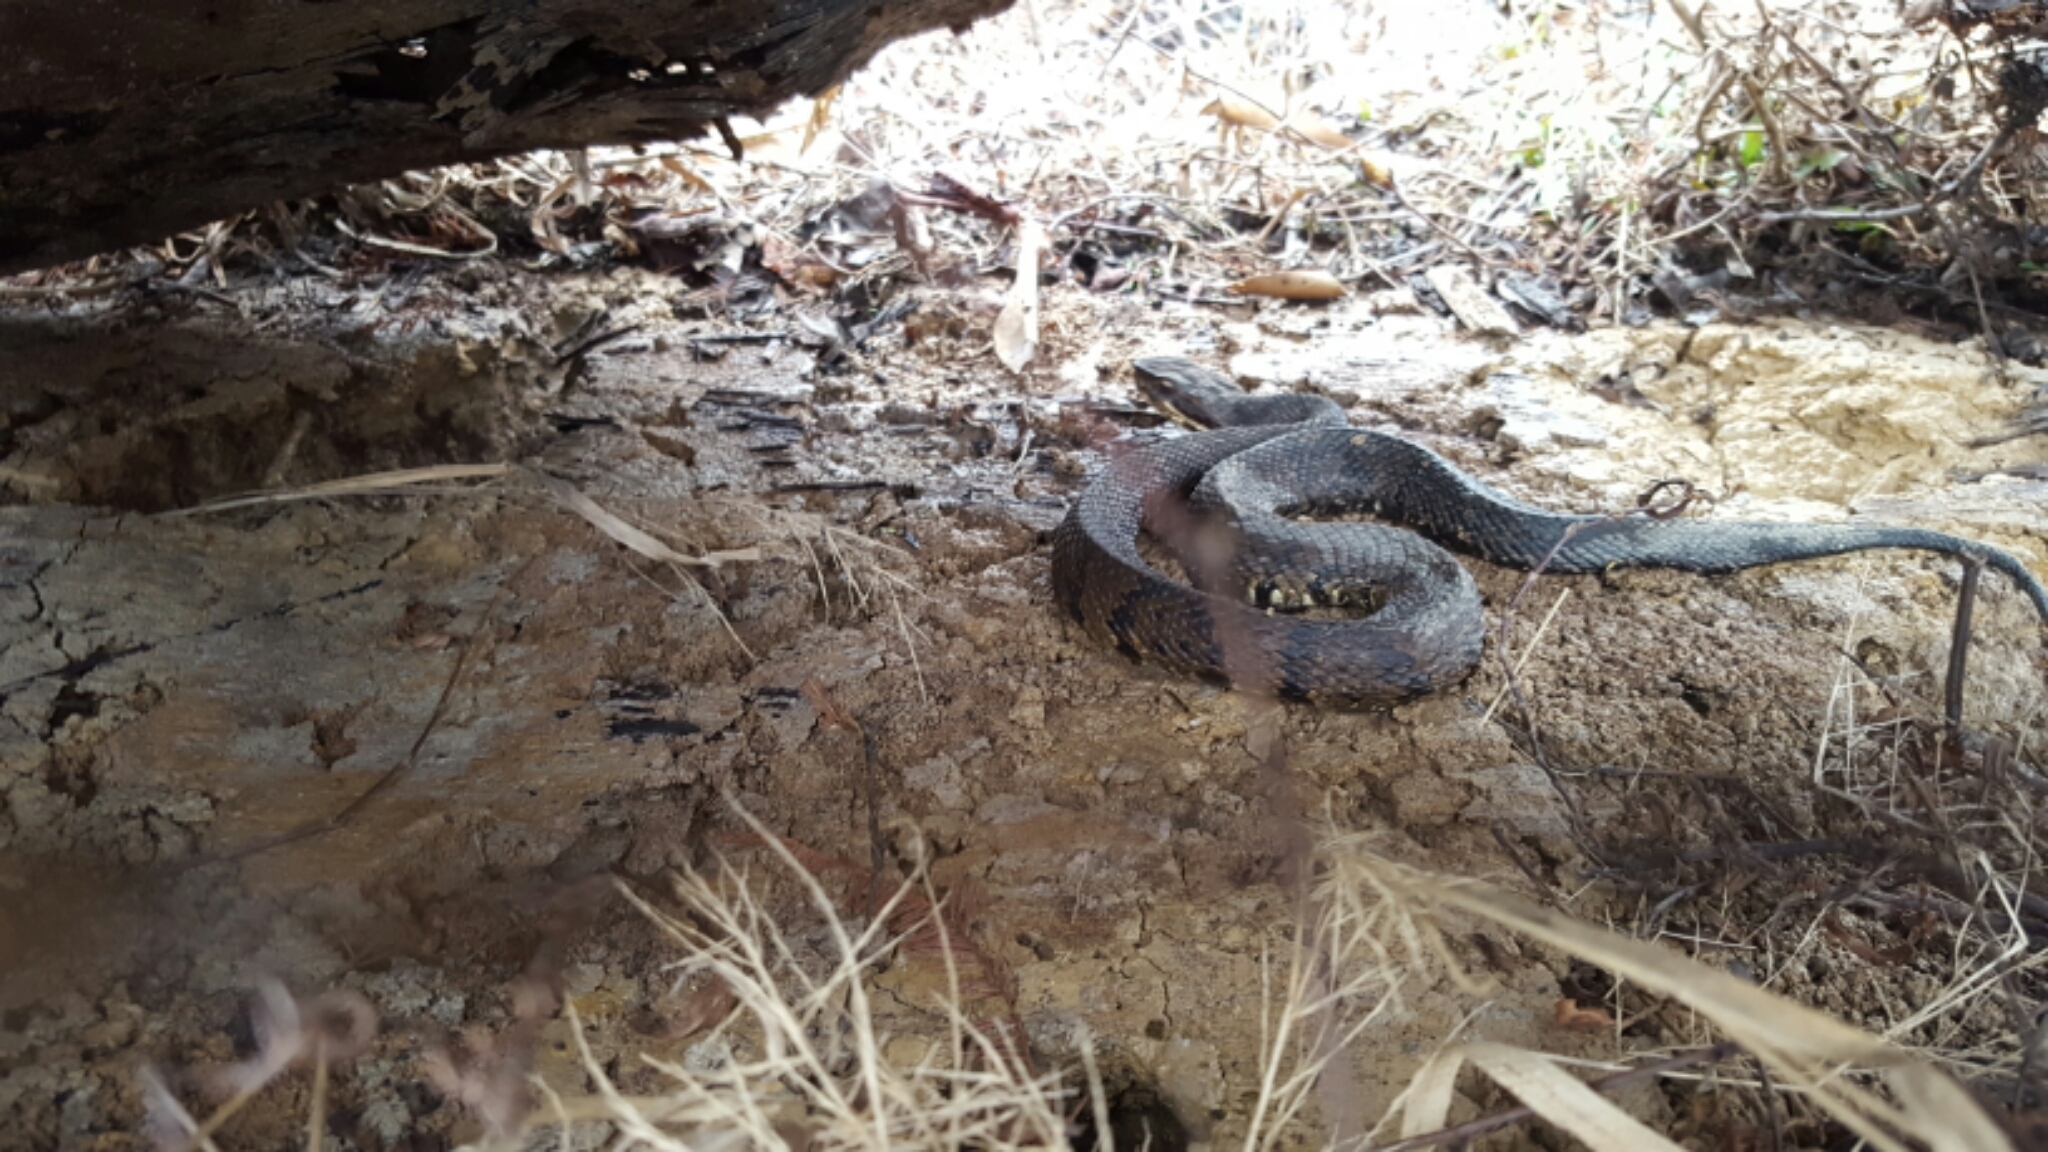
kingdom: Animalia
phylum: Chordata
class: Squamata
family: Viperidae
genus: Agkistrodon
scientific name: Agkistrodon piscivorus
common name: Cottonmouth
